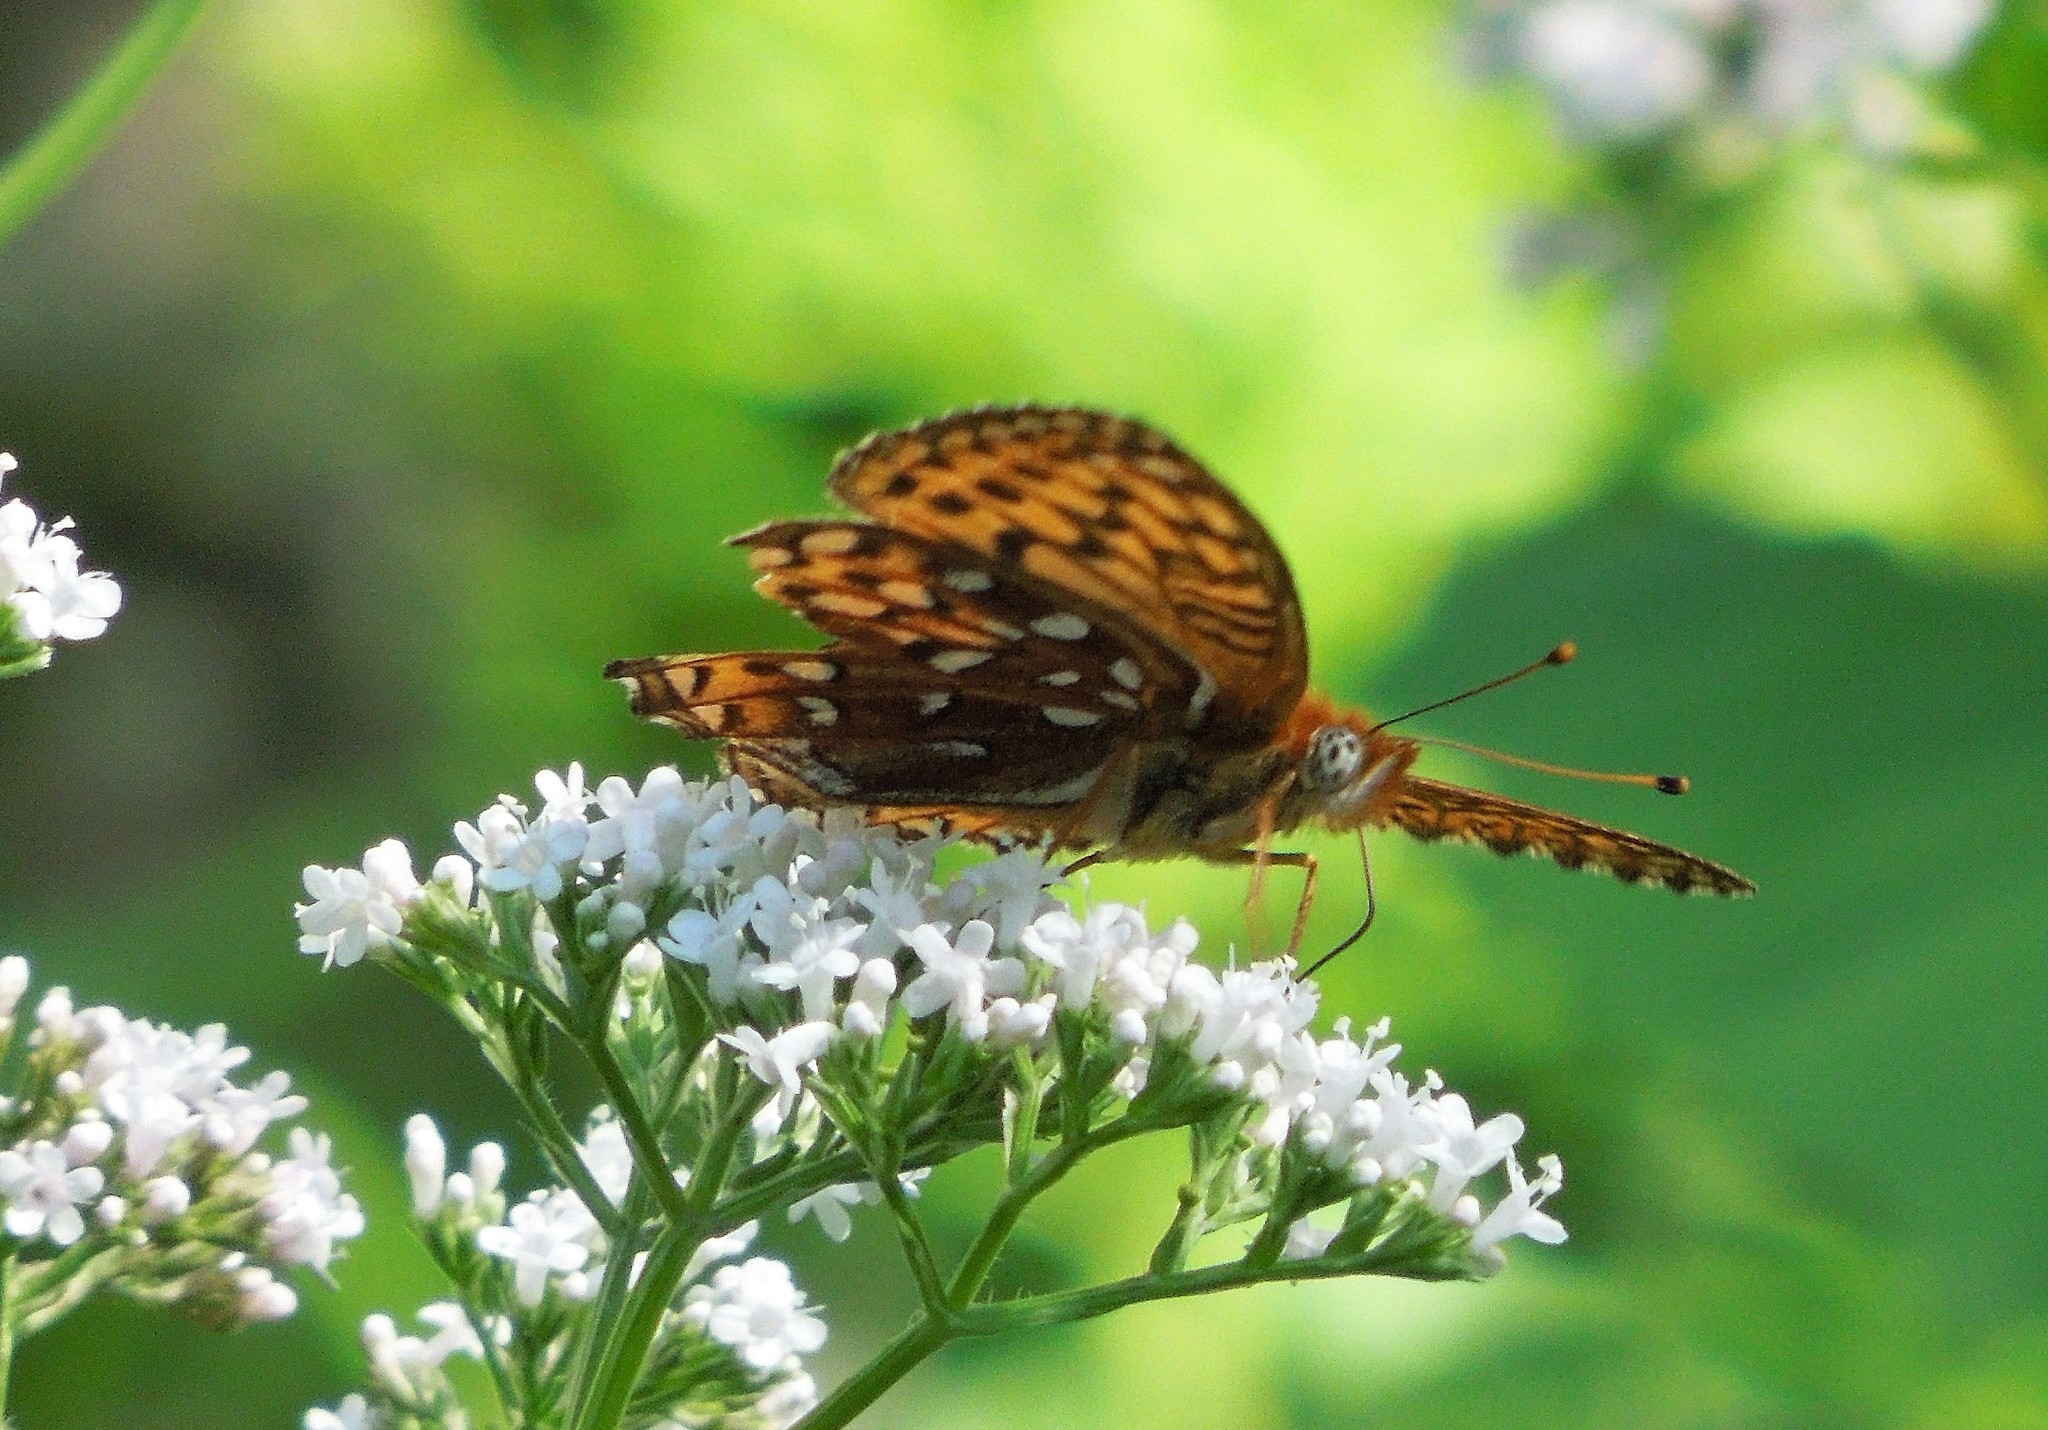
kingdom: Animalia
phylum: Arthropoda
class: Insecta
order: Lepidoptera
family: Nymphalidae
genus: Speyeria
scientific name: Speyeria cybele
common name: Great spangled fritillary
